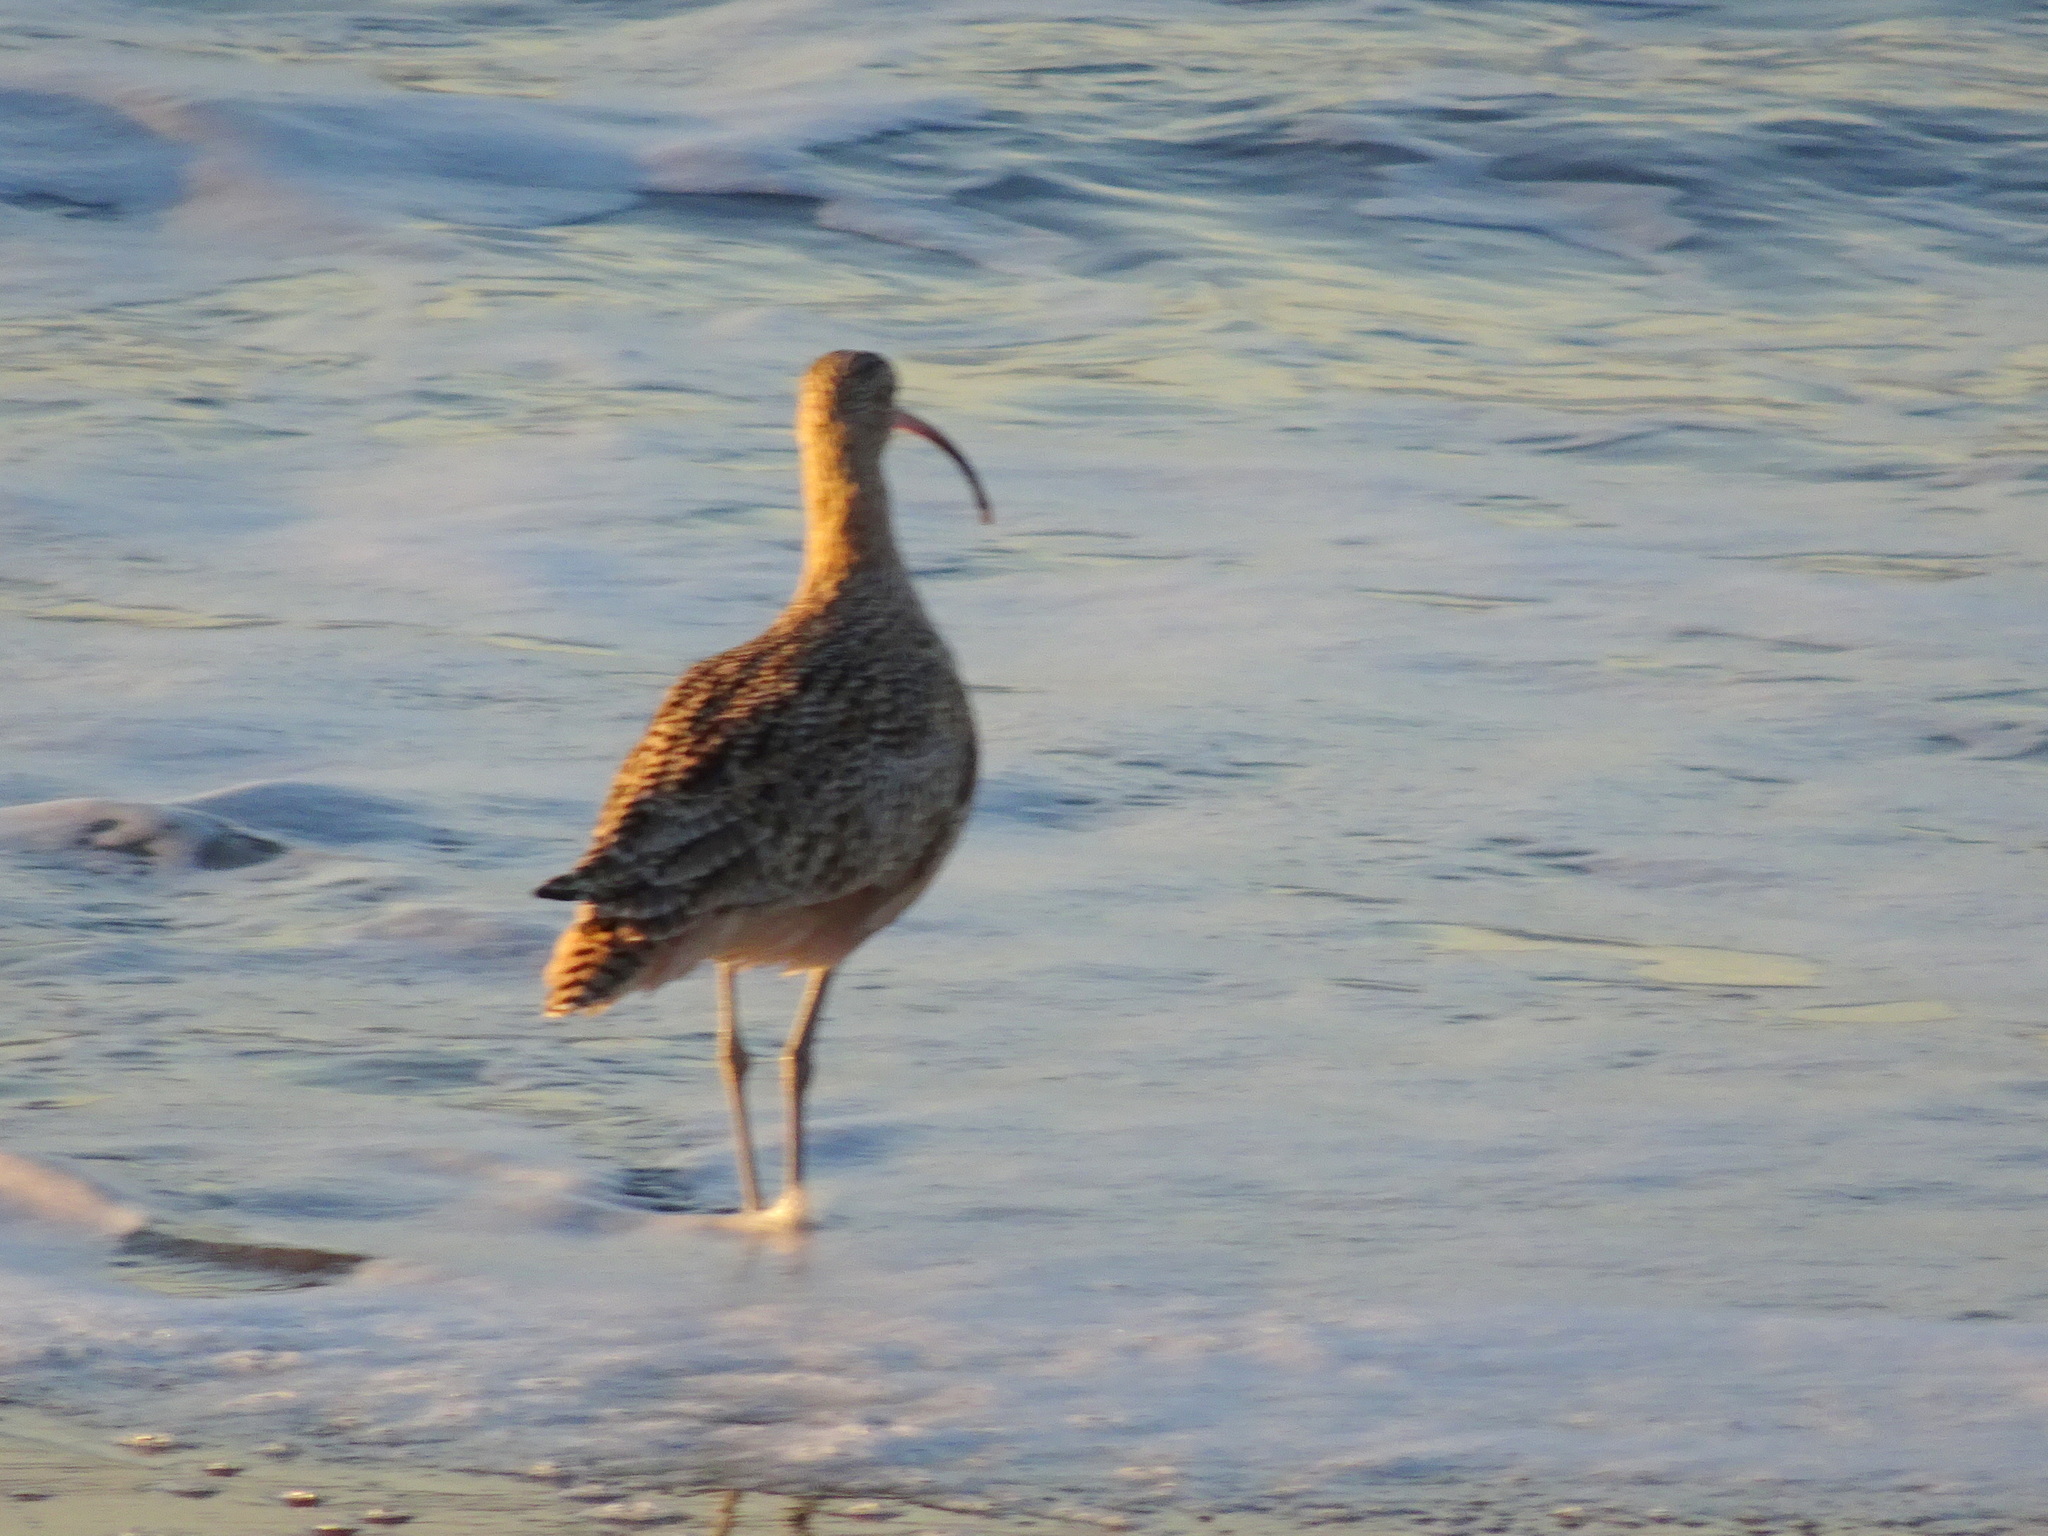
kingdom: Animalia
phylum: Chordata
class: Aves
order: Charadriiformes
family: Scolopacidae
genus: Numenius
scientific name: Numenius americanus
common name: Long-billed curlew
